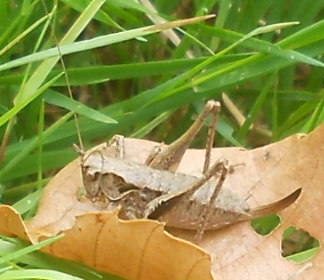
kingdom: Animalia
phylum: Arthropoda
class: Insecta
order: Orthoptera
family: Tettigoniidae
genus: Pholidoptera
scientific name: Pholidoptera griseoaptera
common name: Dark bush-cricket
